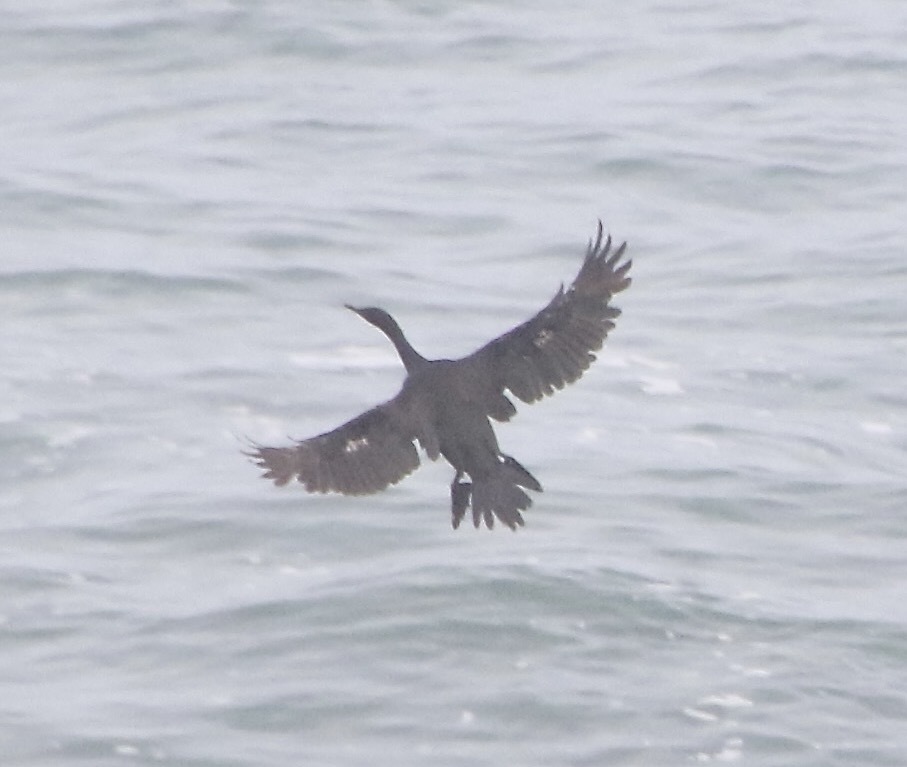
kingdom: Animalia
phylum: Chordata
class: Aves
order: Suliformes
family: Phalacrocoracidae
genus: Phalacrocorax
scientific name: Phalacrocorax pelagicus
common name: Pelagic cormorant
